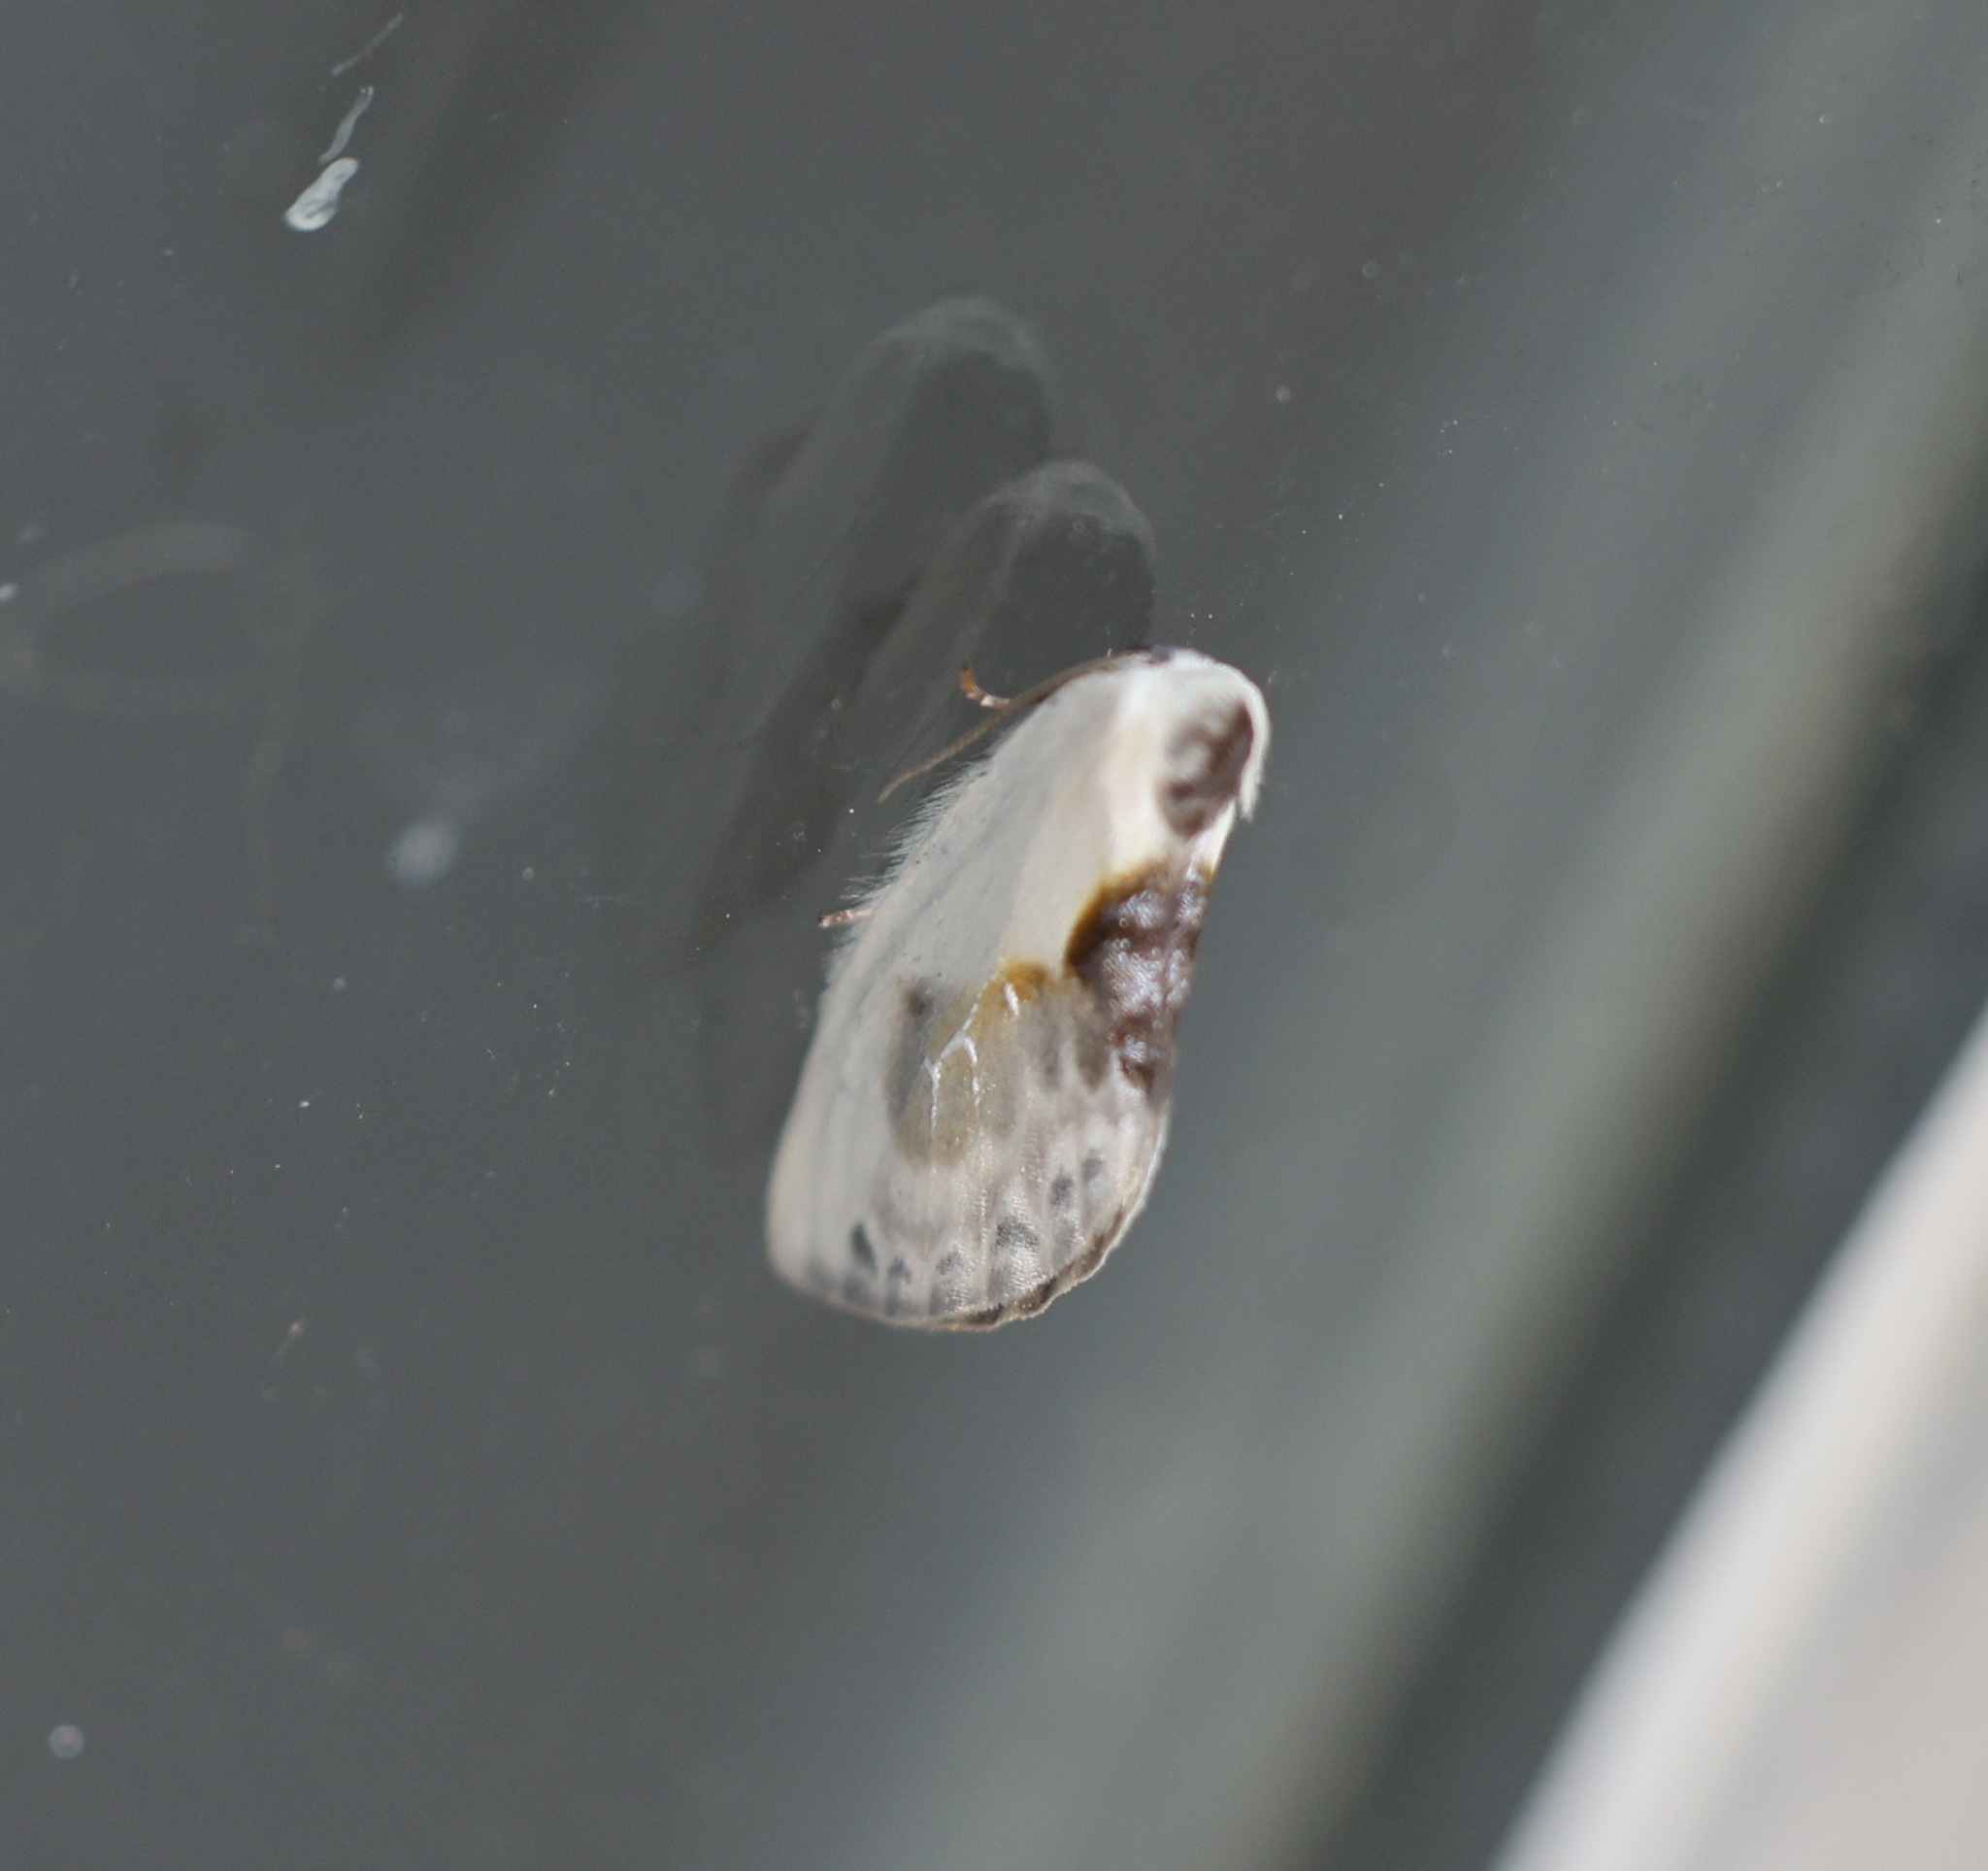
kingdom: Animalia
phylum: Arthropoda
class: Insecta
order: Lepidoptera
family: Drepanidae
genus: Cilix
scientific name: Cilix glaucata
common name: Chinese character
